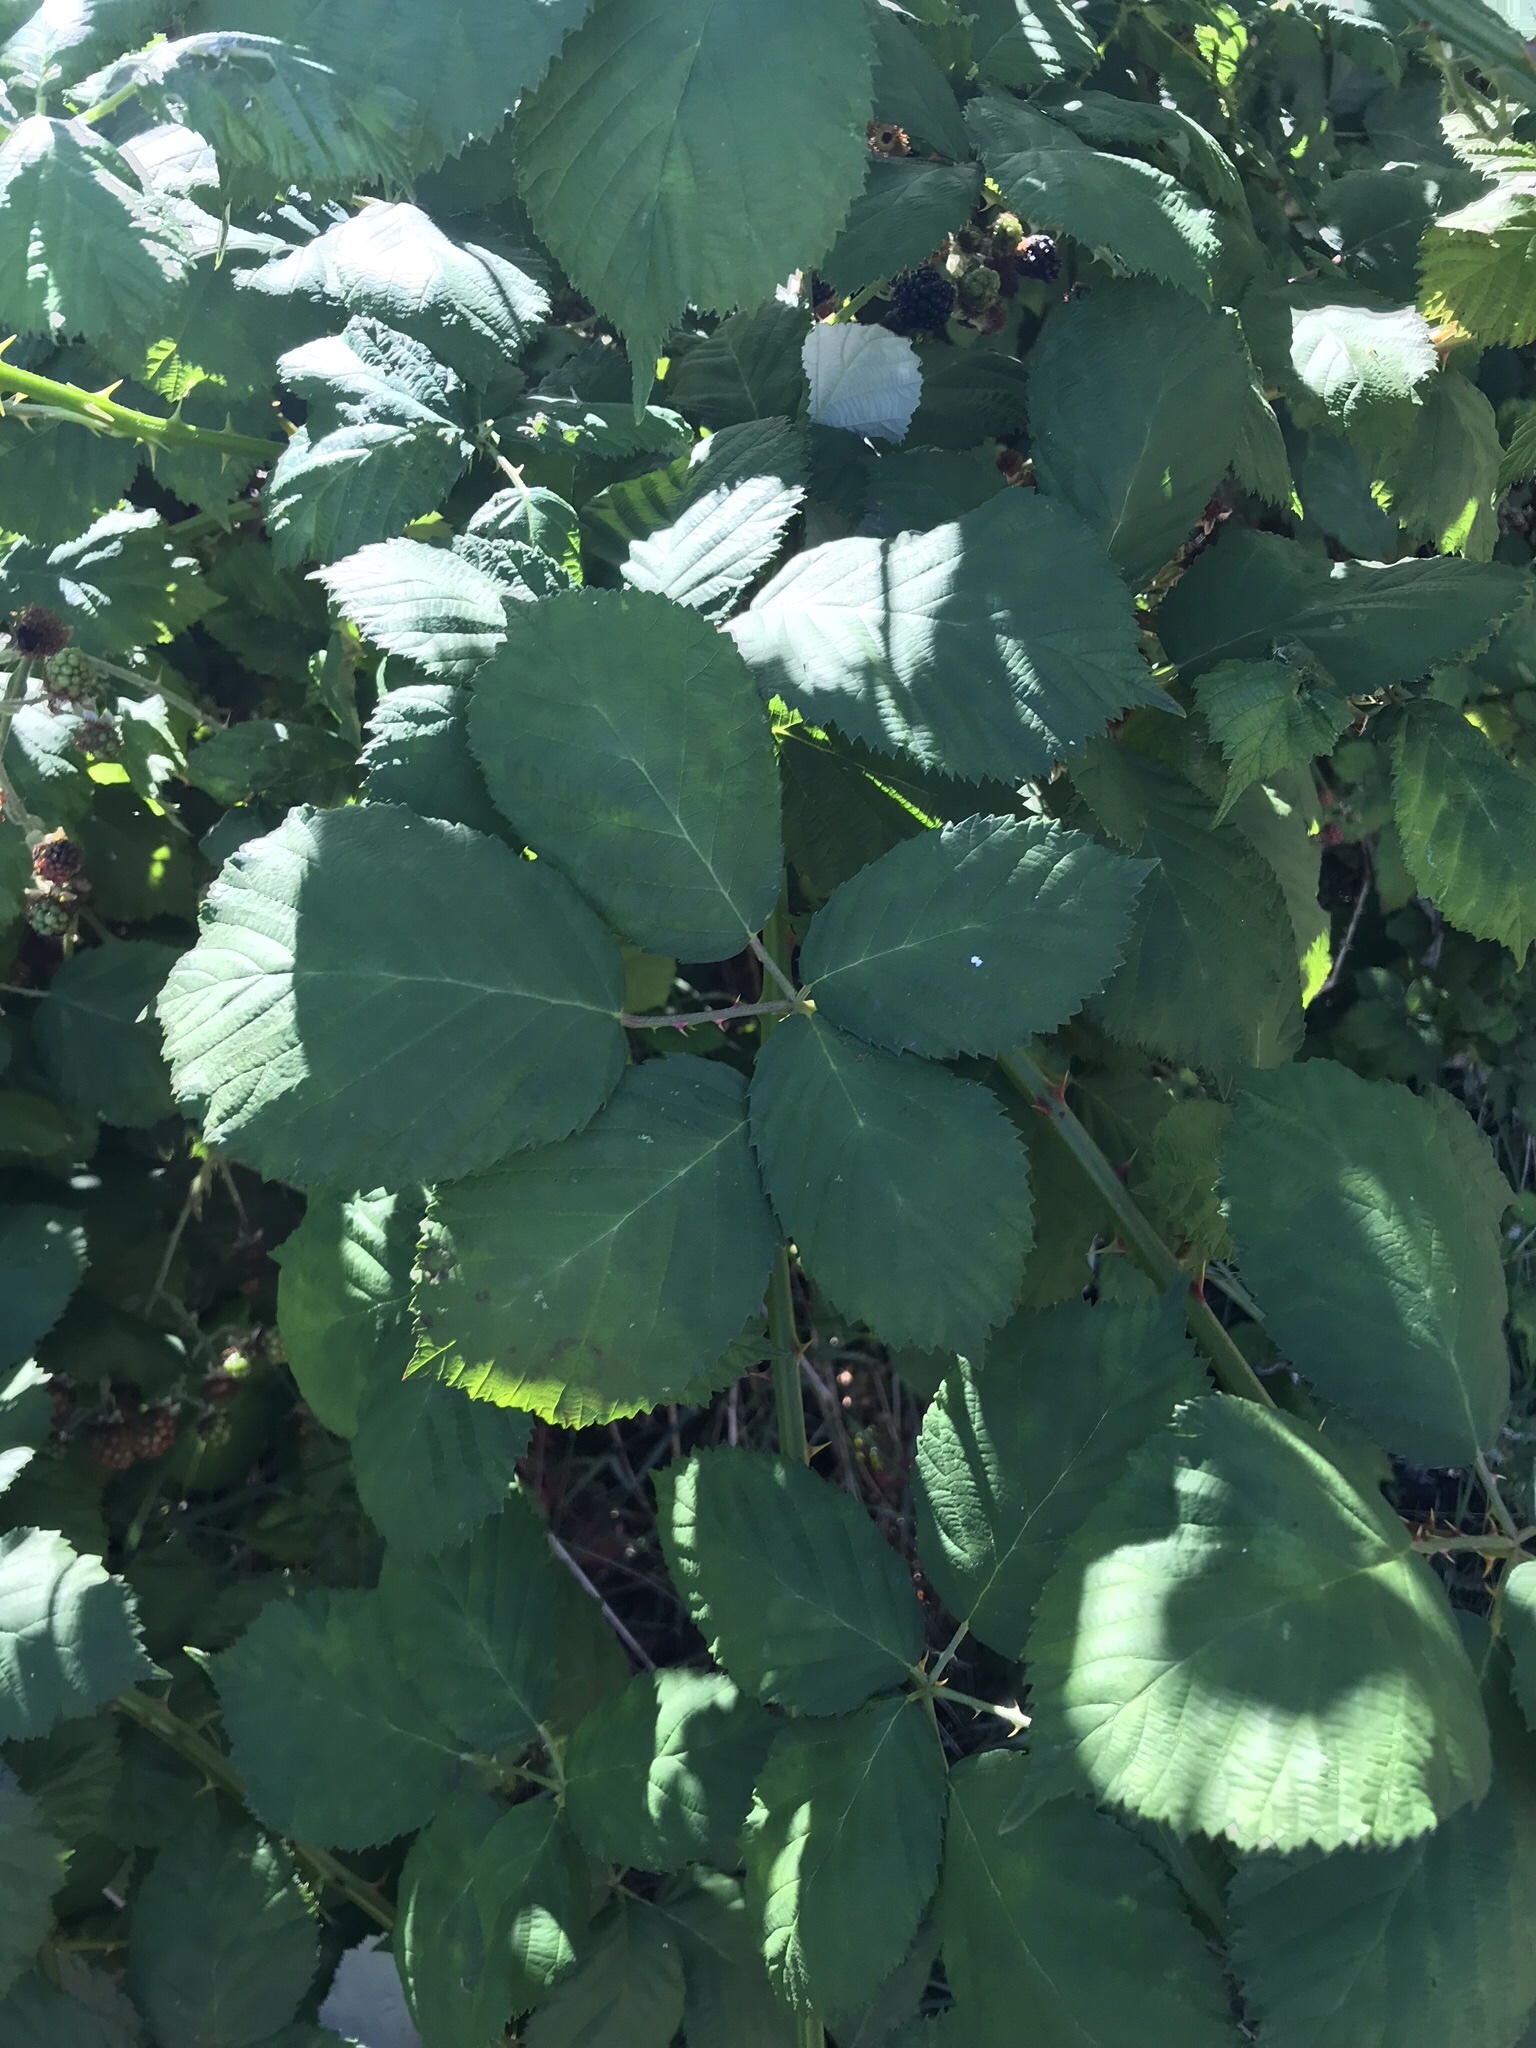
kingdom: Plantae
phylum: Tracheophyta
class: Magnoliopsida
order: Rosales
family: Rosaceae
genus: Rubus
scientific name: Rubus armeniacus
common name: Himalayan blackberry
